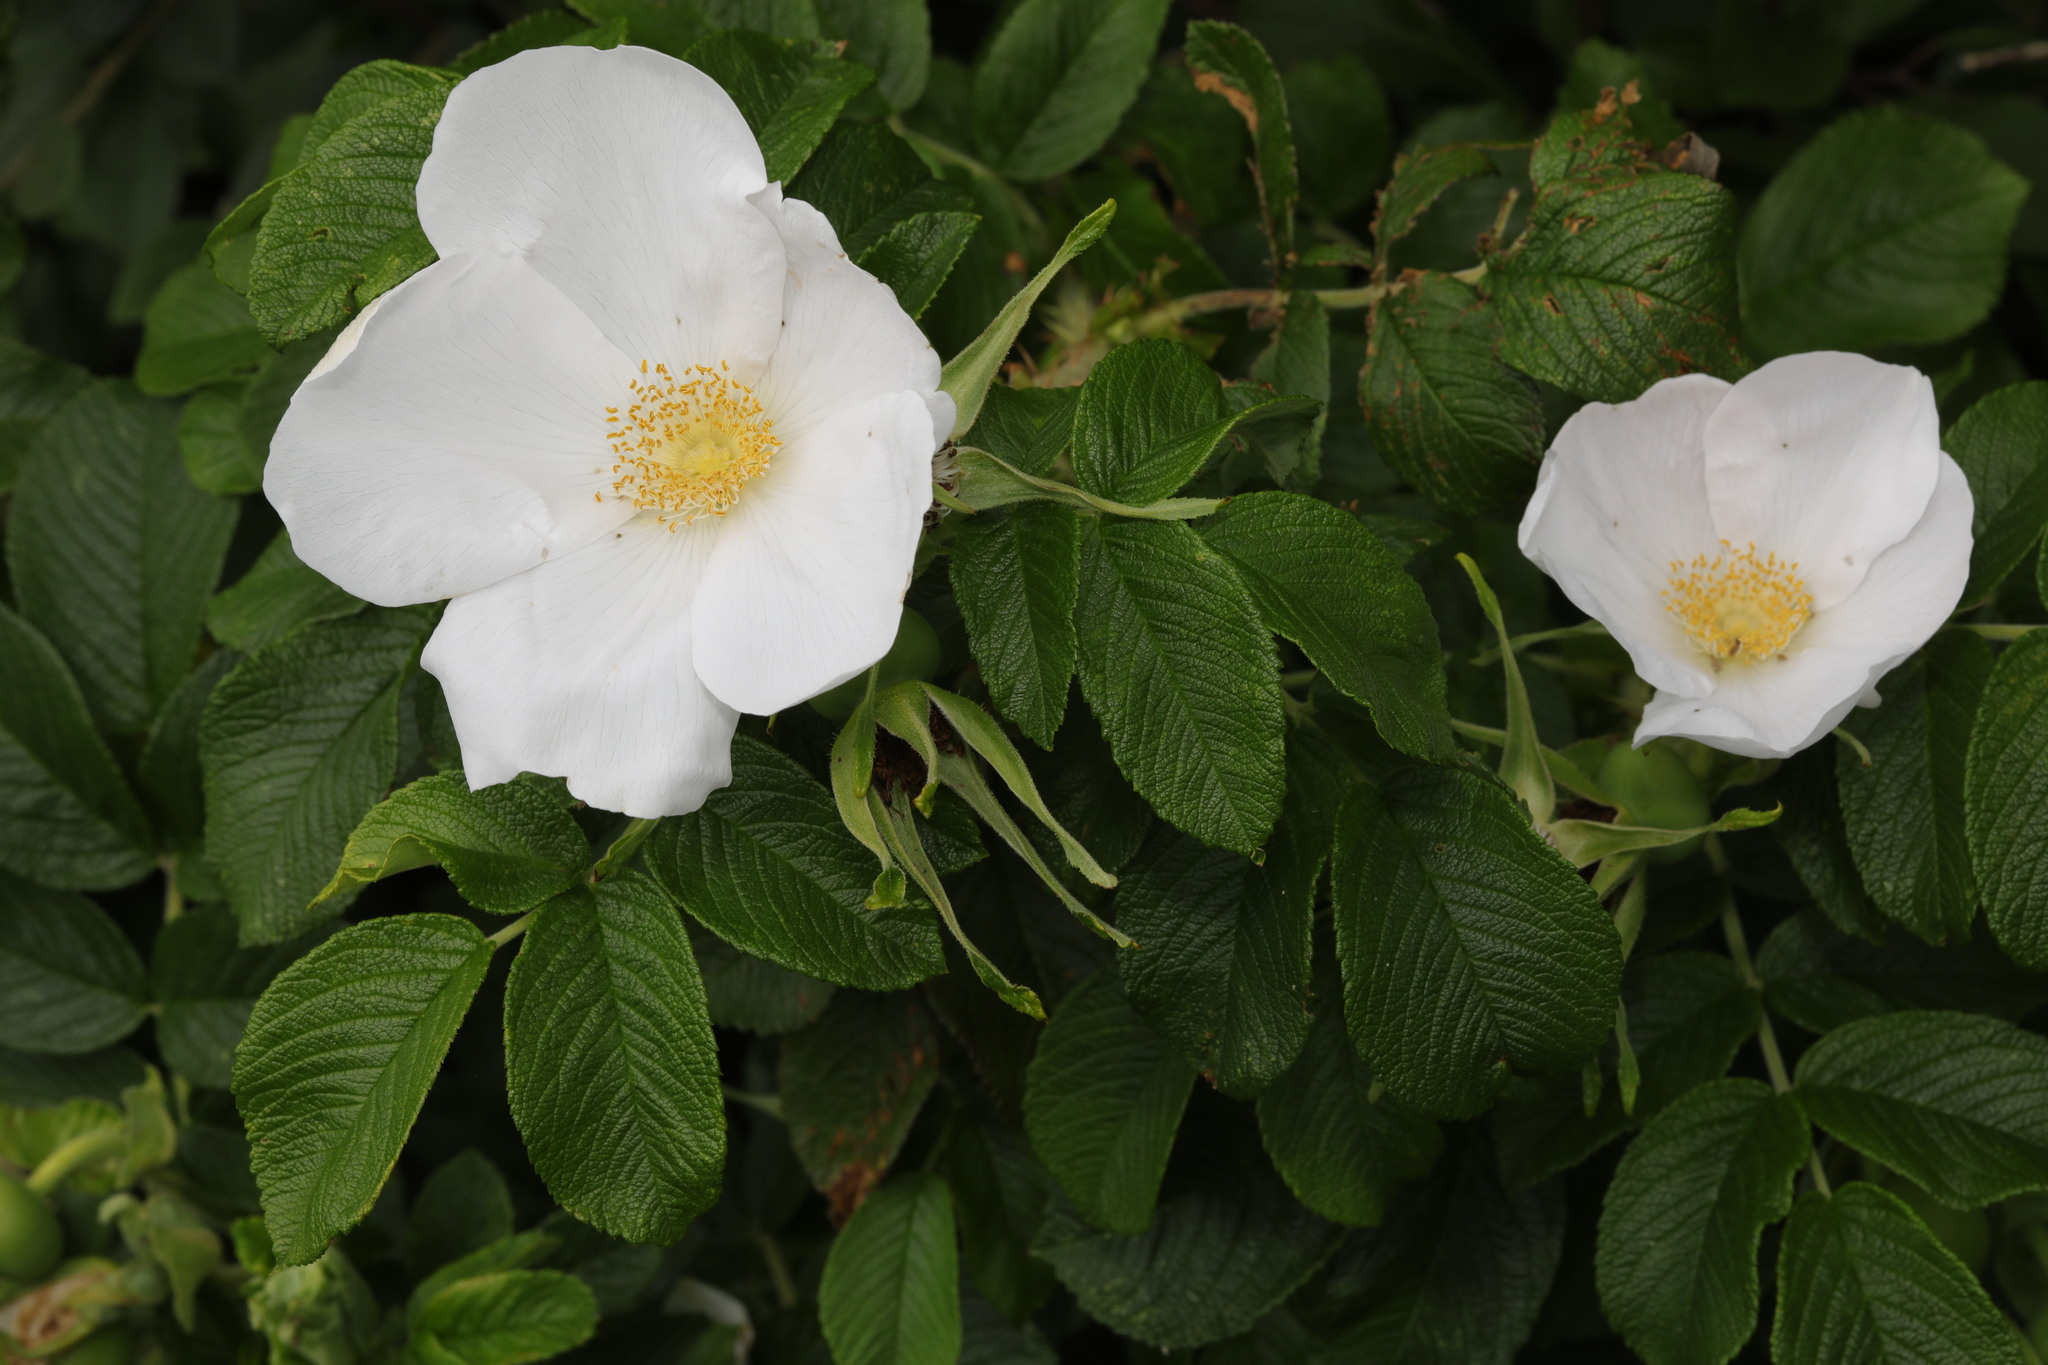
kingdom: Plantae
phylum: Tracheophyta
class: Magnoliopsida
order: Rosales
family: Rosaceae
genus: Rosa
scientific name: Rosa rugosa
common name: Japanese rose
